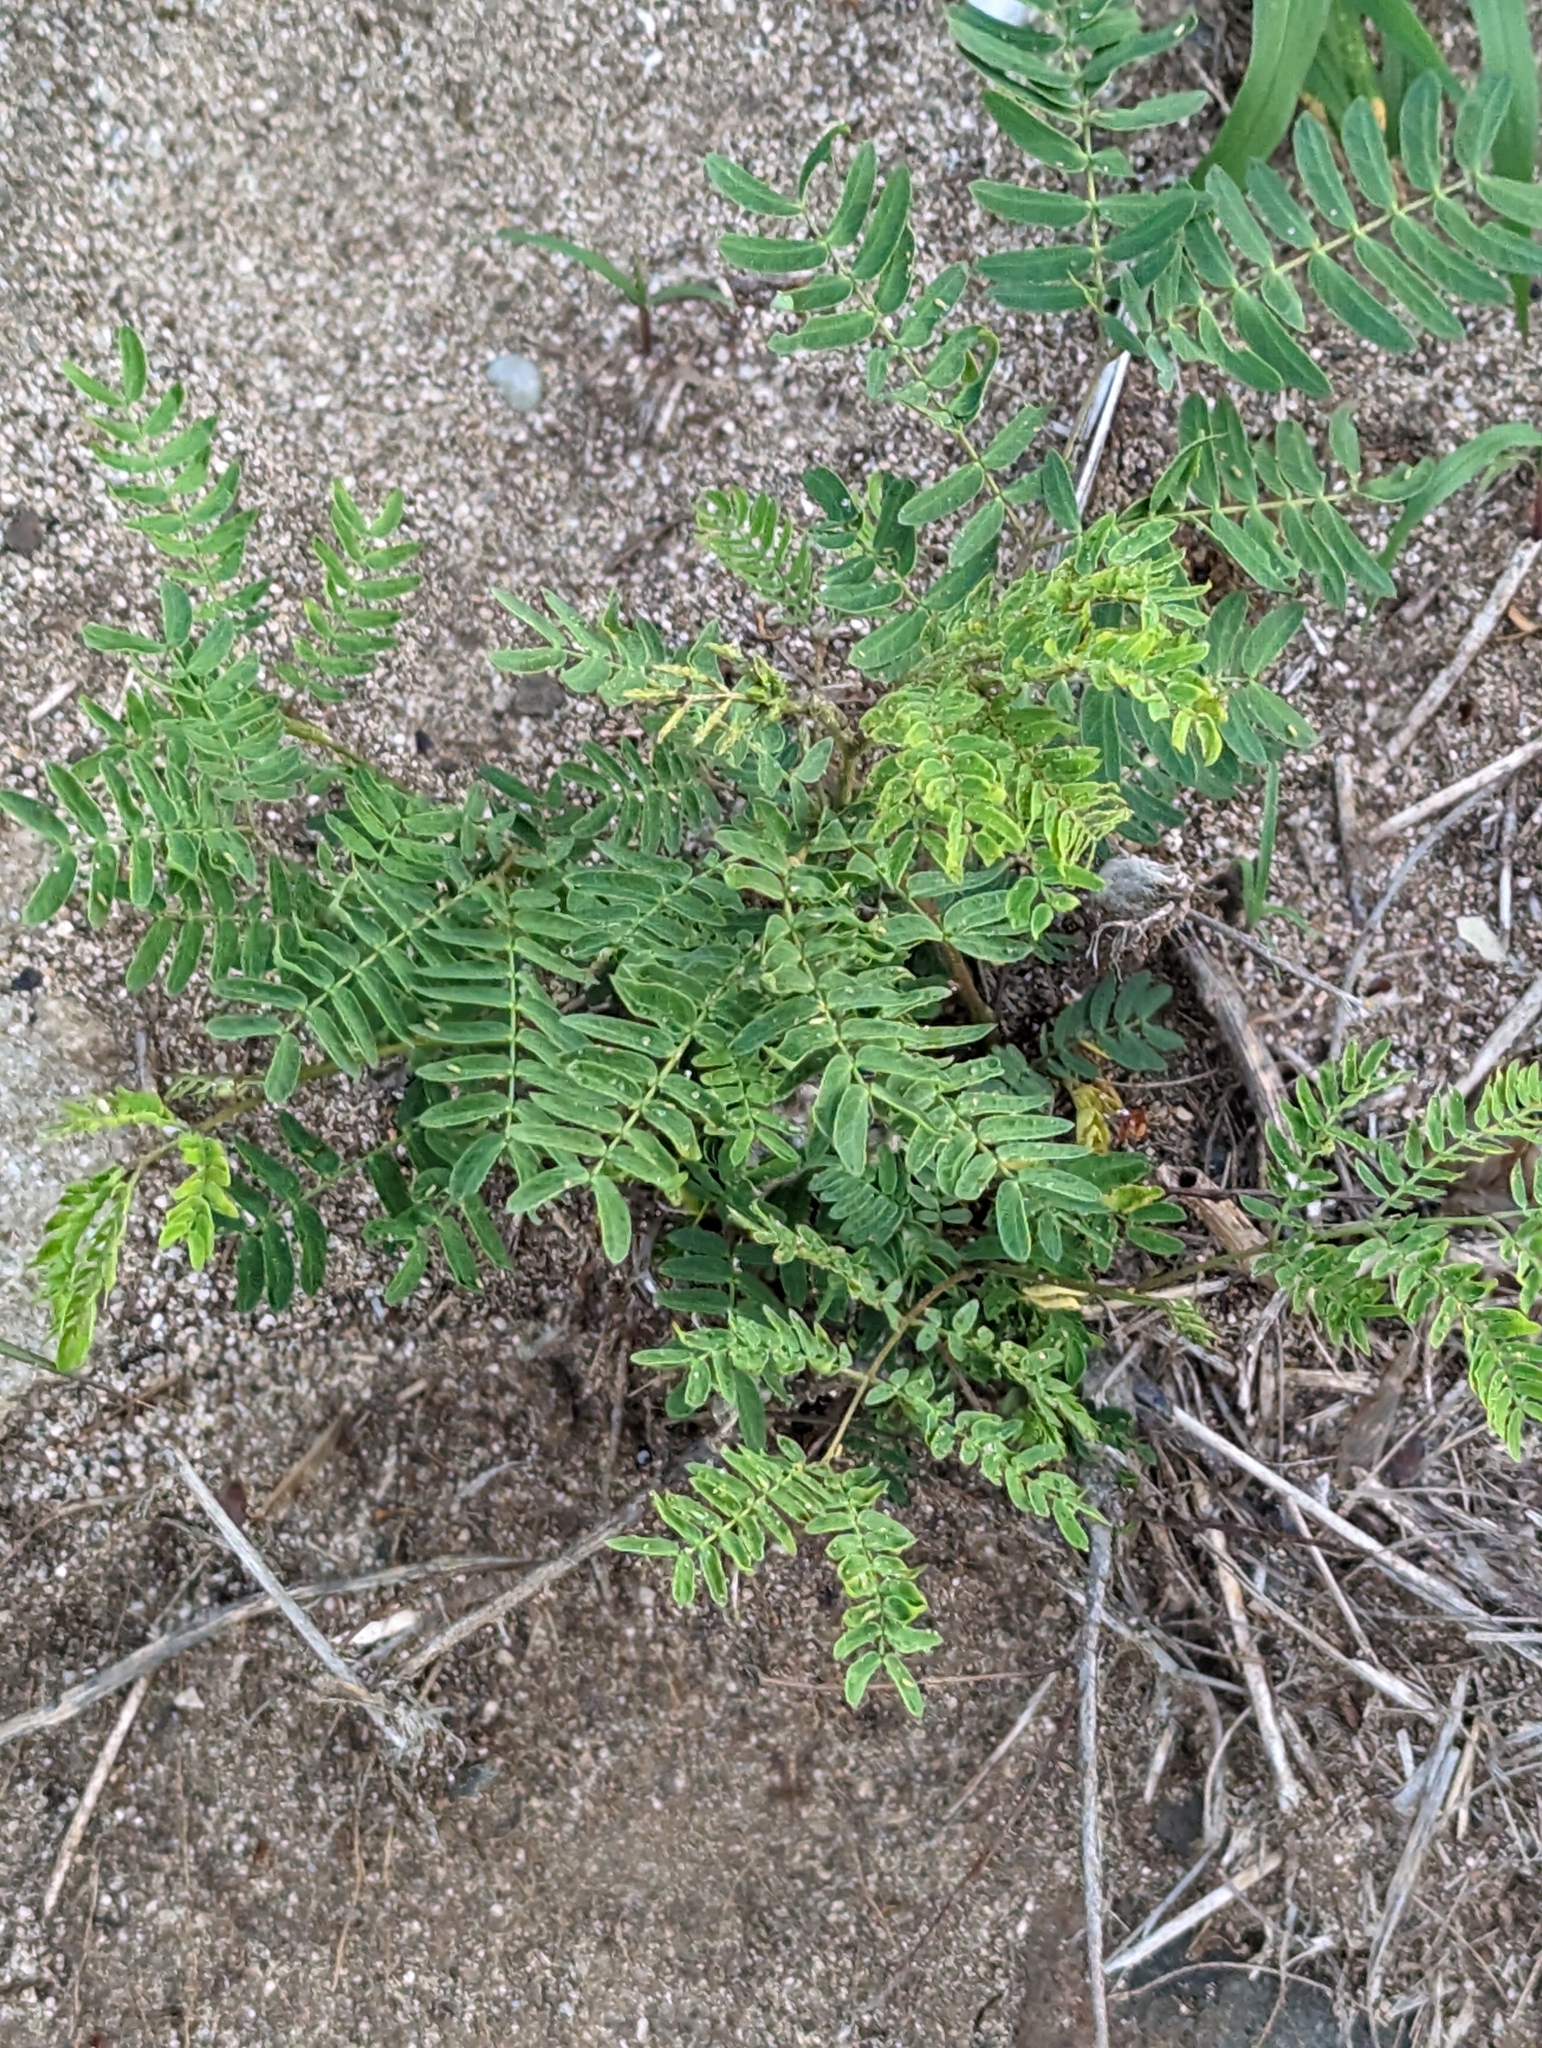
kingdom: Plantae
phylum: Tracheophyta
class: Magnoliopsida
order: Fabales
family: Fabaceae
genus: Leucaena
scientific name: Leucaena leucocephala
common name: White leadtree
